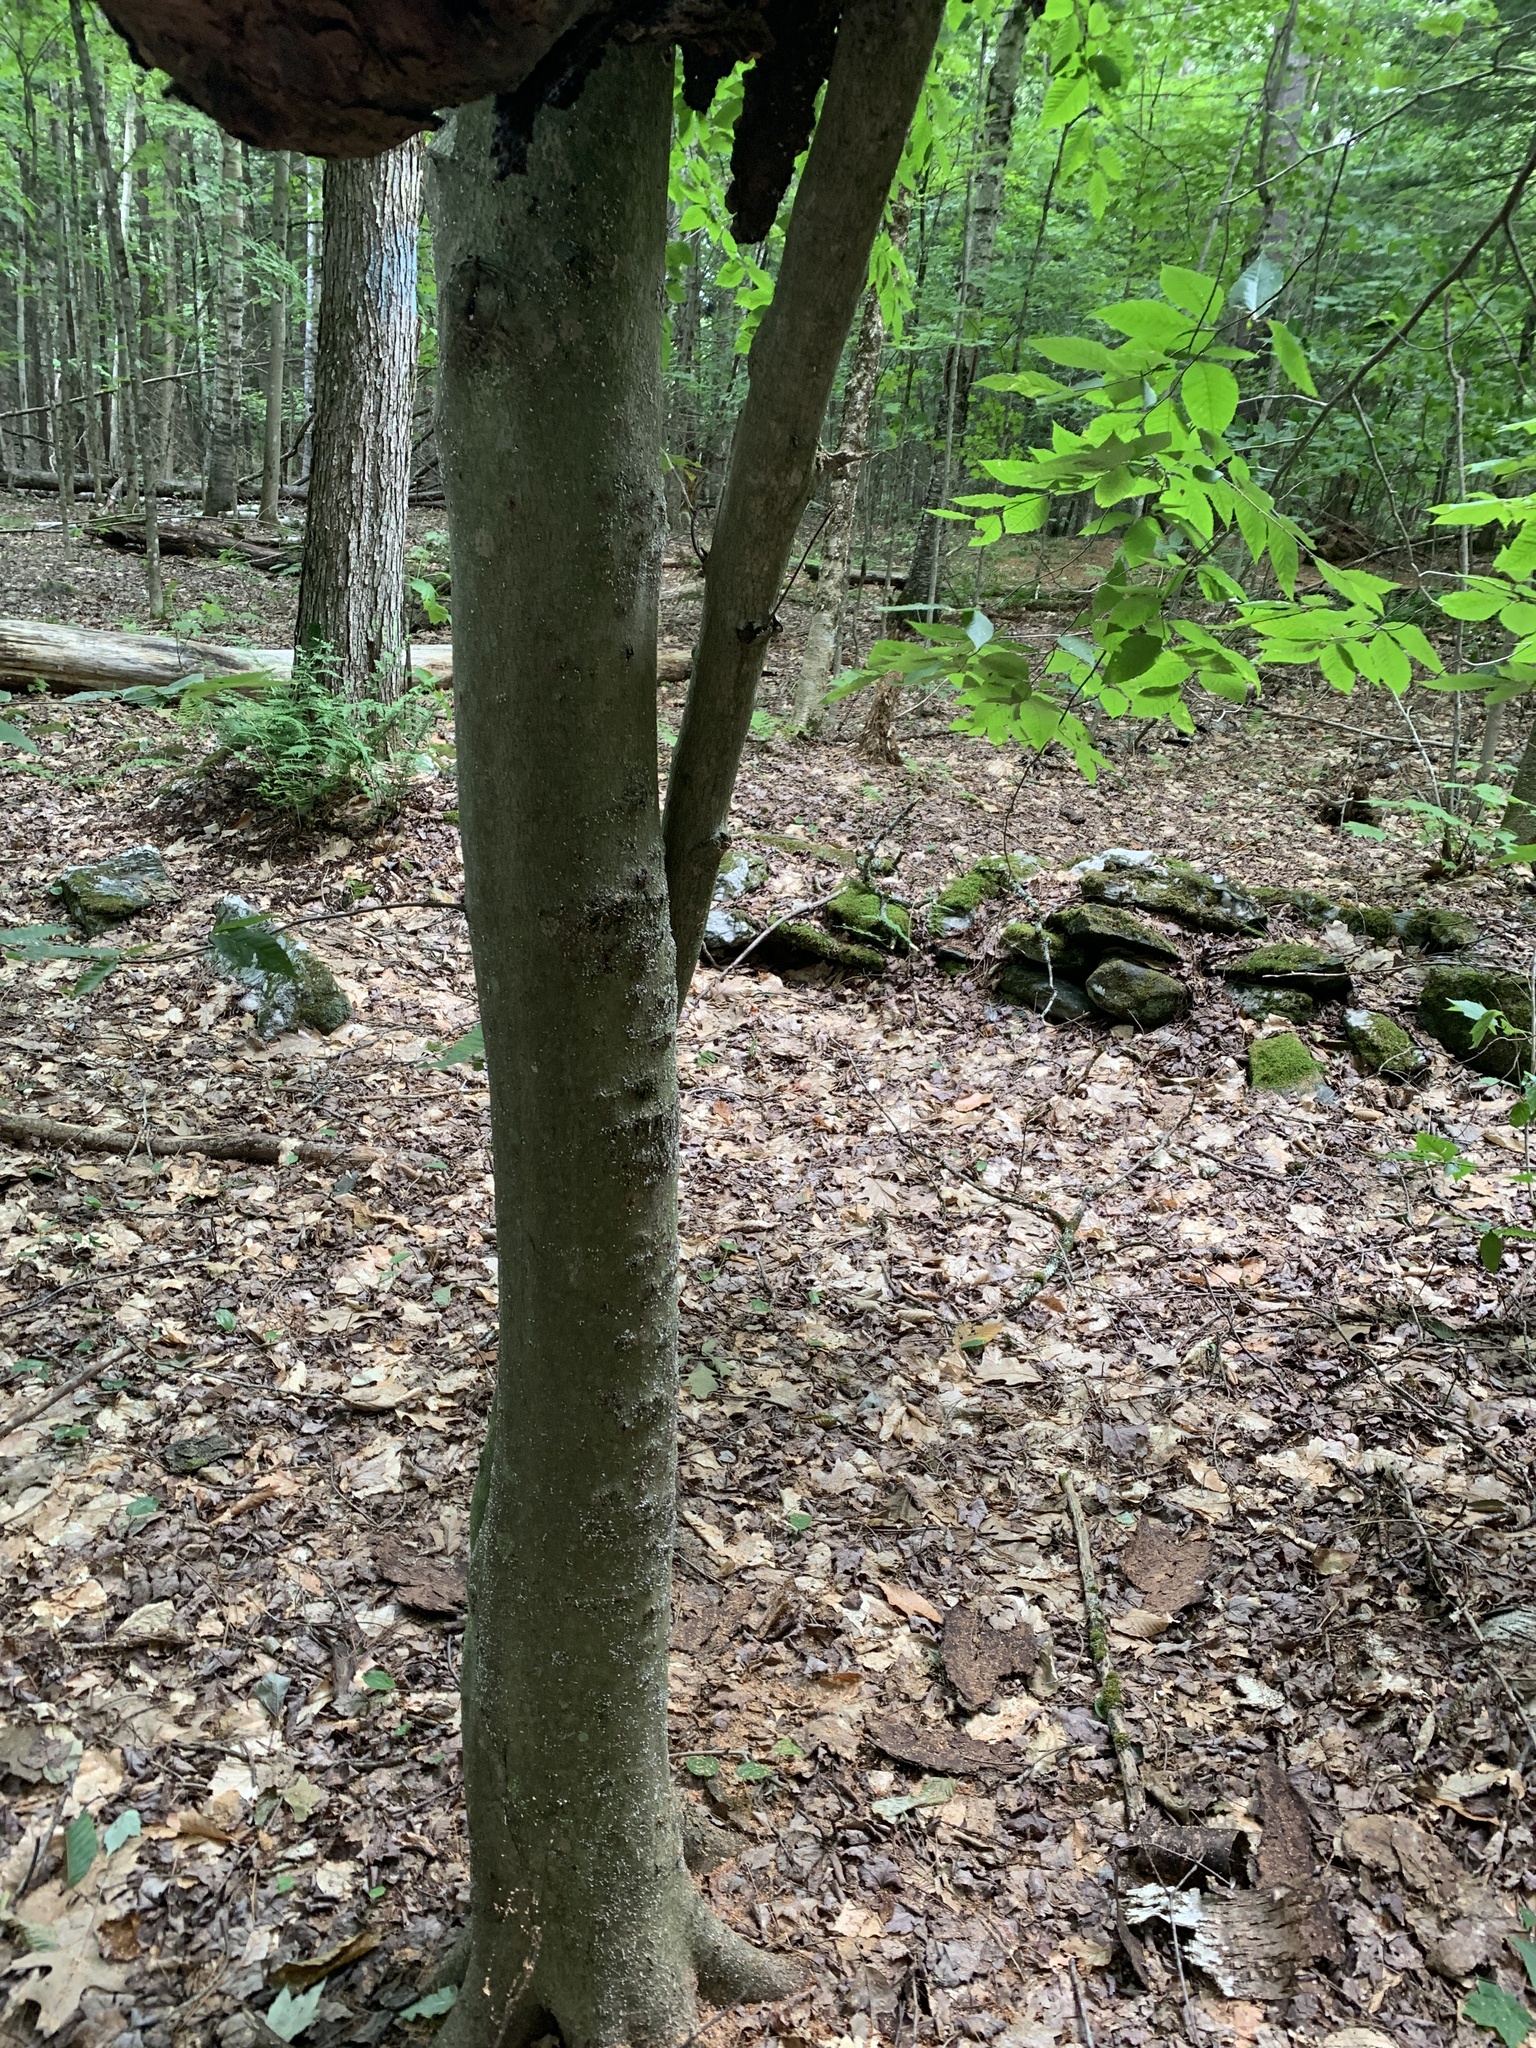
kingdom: Plantae
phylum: Tracheophyta
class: Magnoliopsida
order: Fagales
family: Fagaceae
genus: Fagus
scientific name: Fagus grandifolia
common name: American beech
